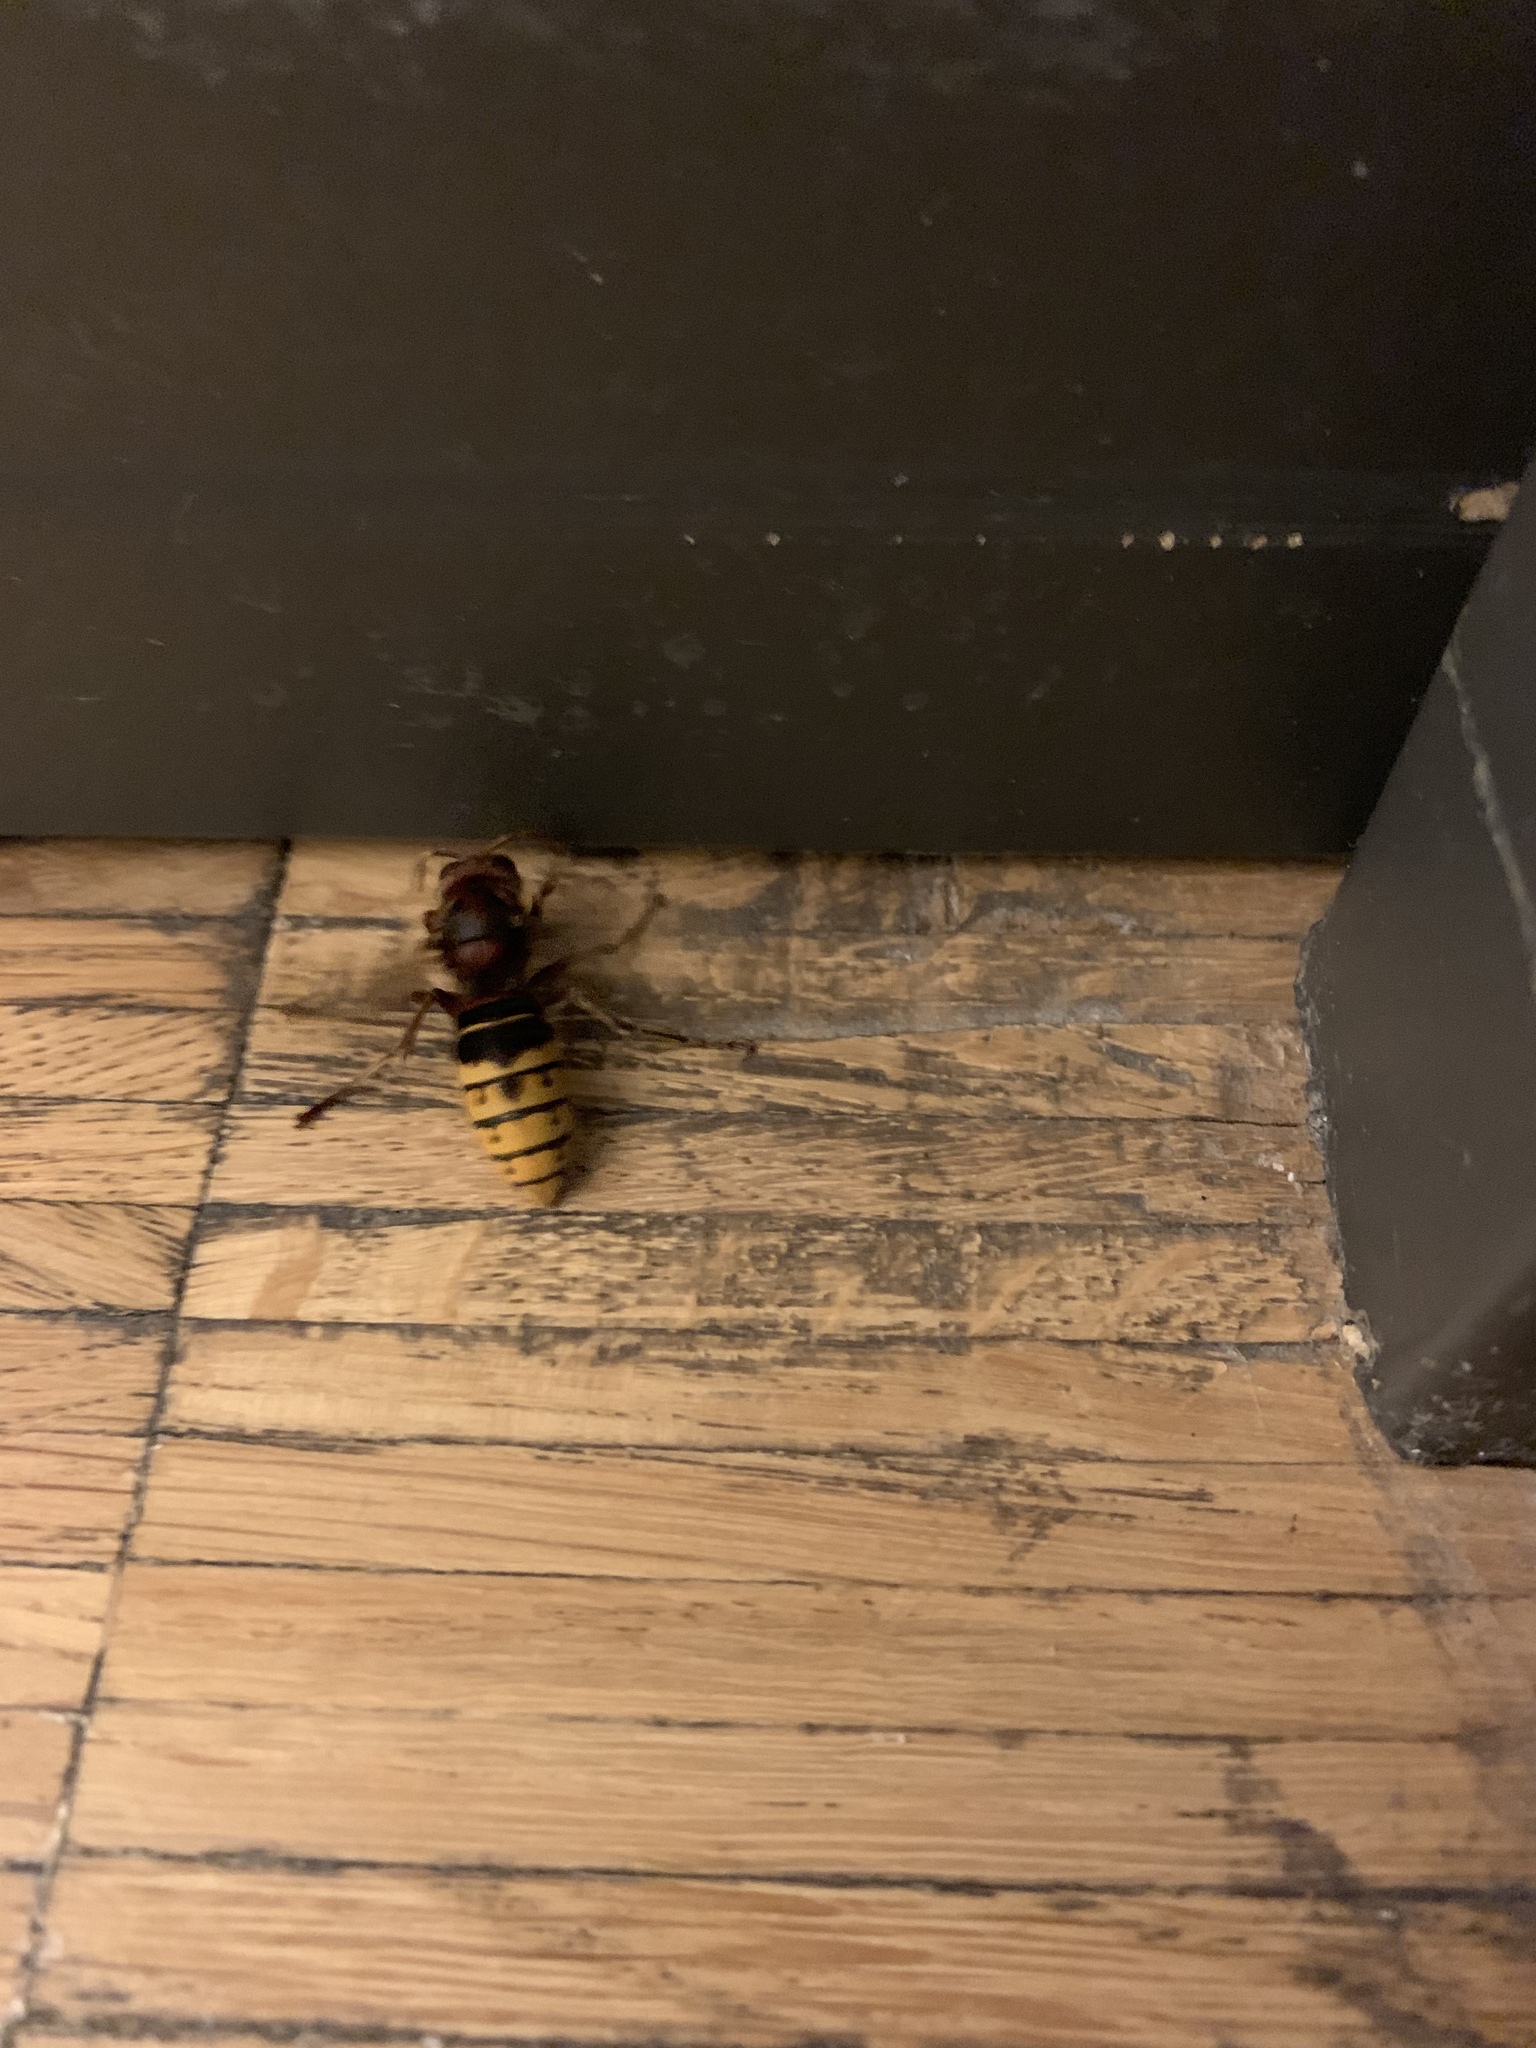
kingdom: Animalia
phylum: Arthropoda
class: Insecta
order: Hymenoptera
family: Vespidae
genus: Vespa
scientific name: Vespa crabro
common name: Hornet
